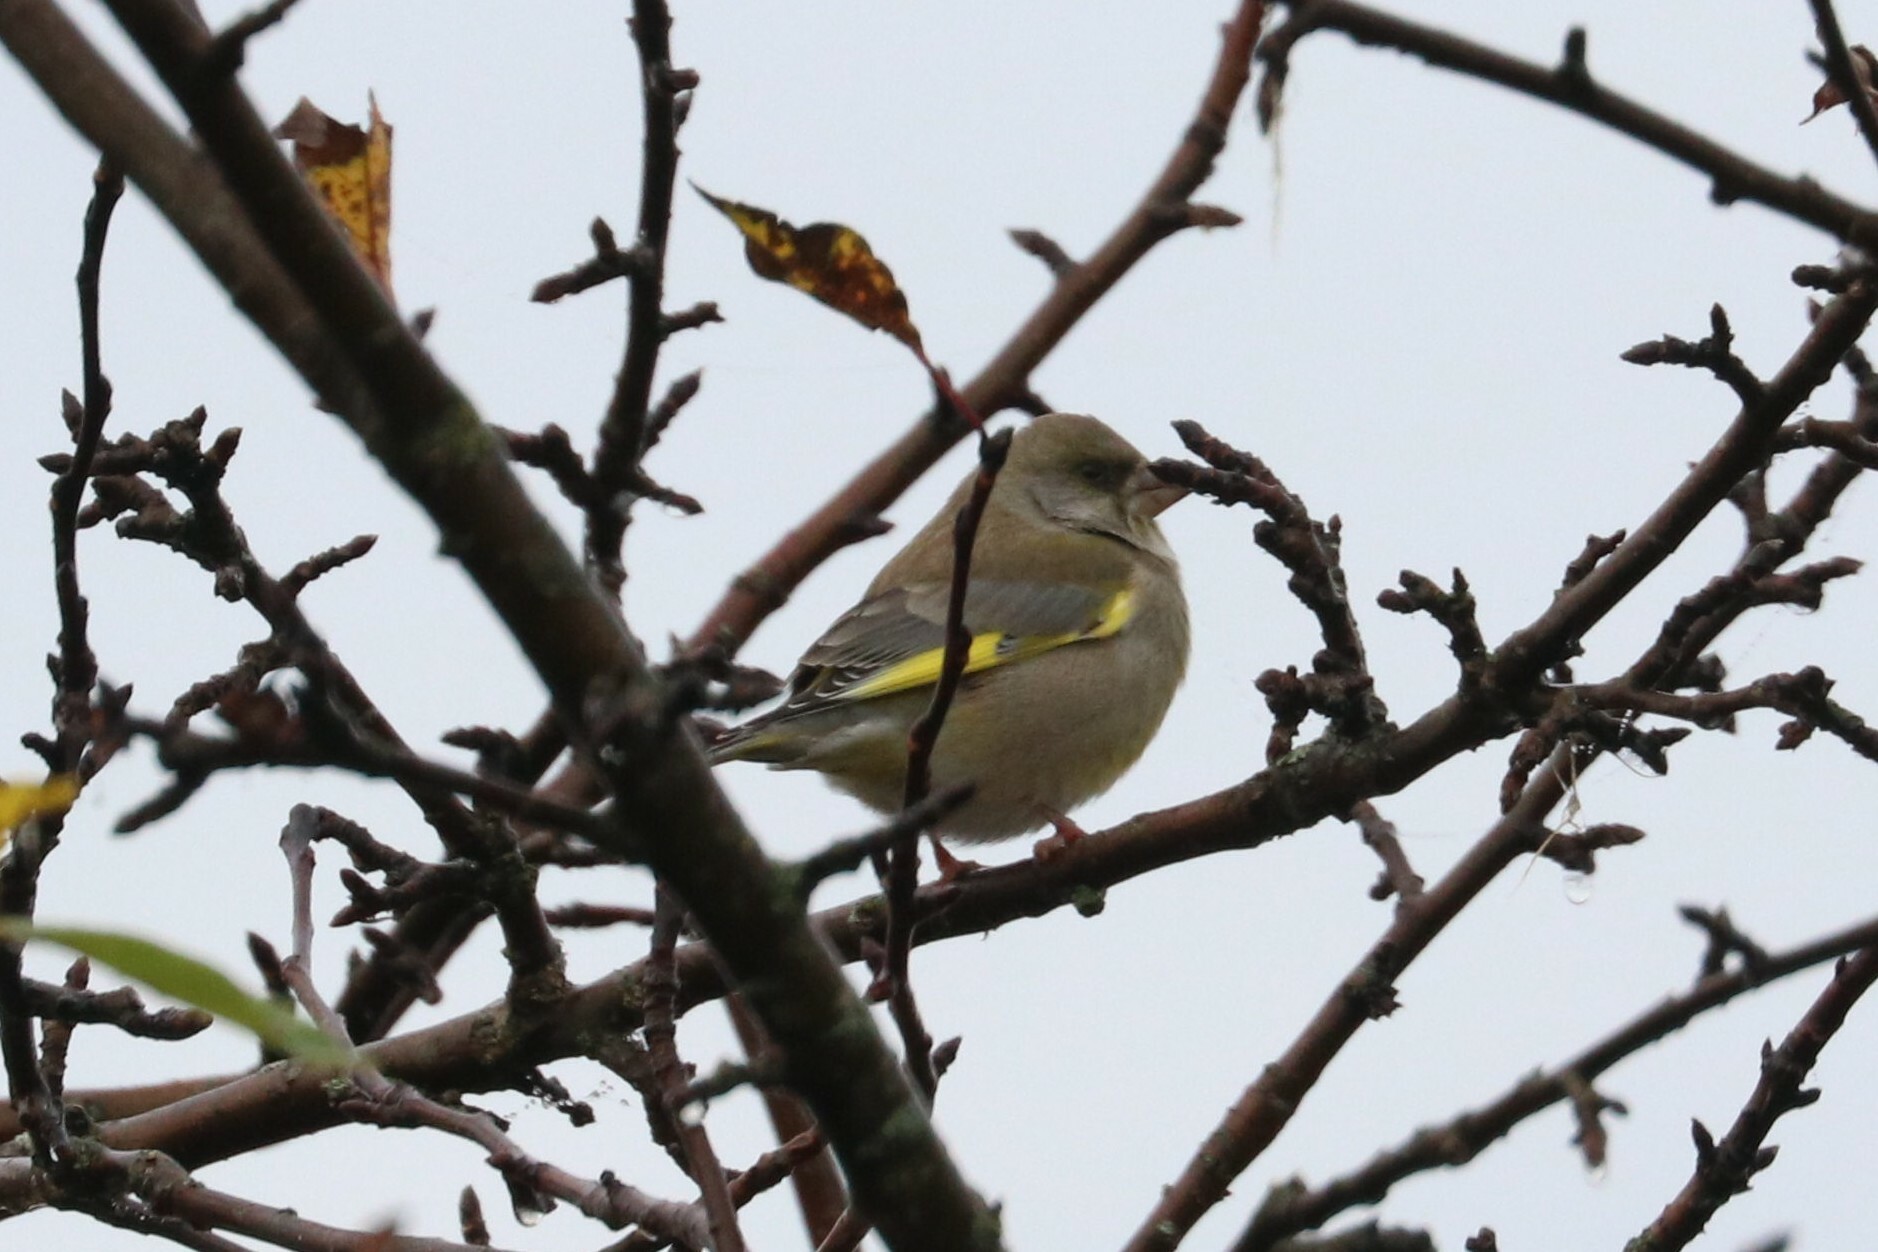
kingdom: Plantae
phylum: Tracheophyta
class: Liliopsida
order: Poales
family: Poaceae
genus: Chloris
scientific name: Chloris chloris
